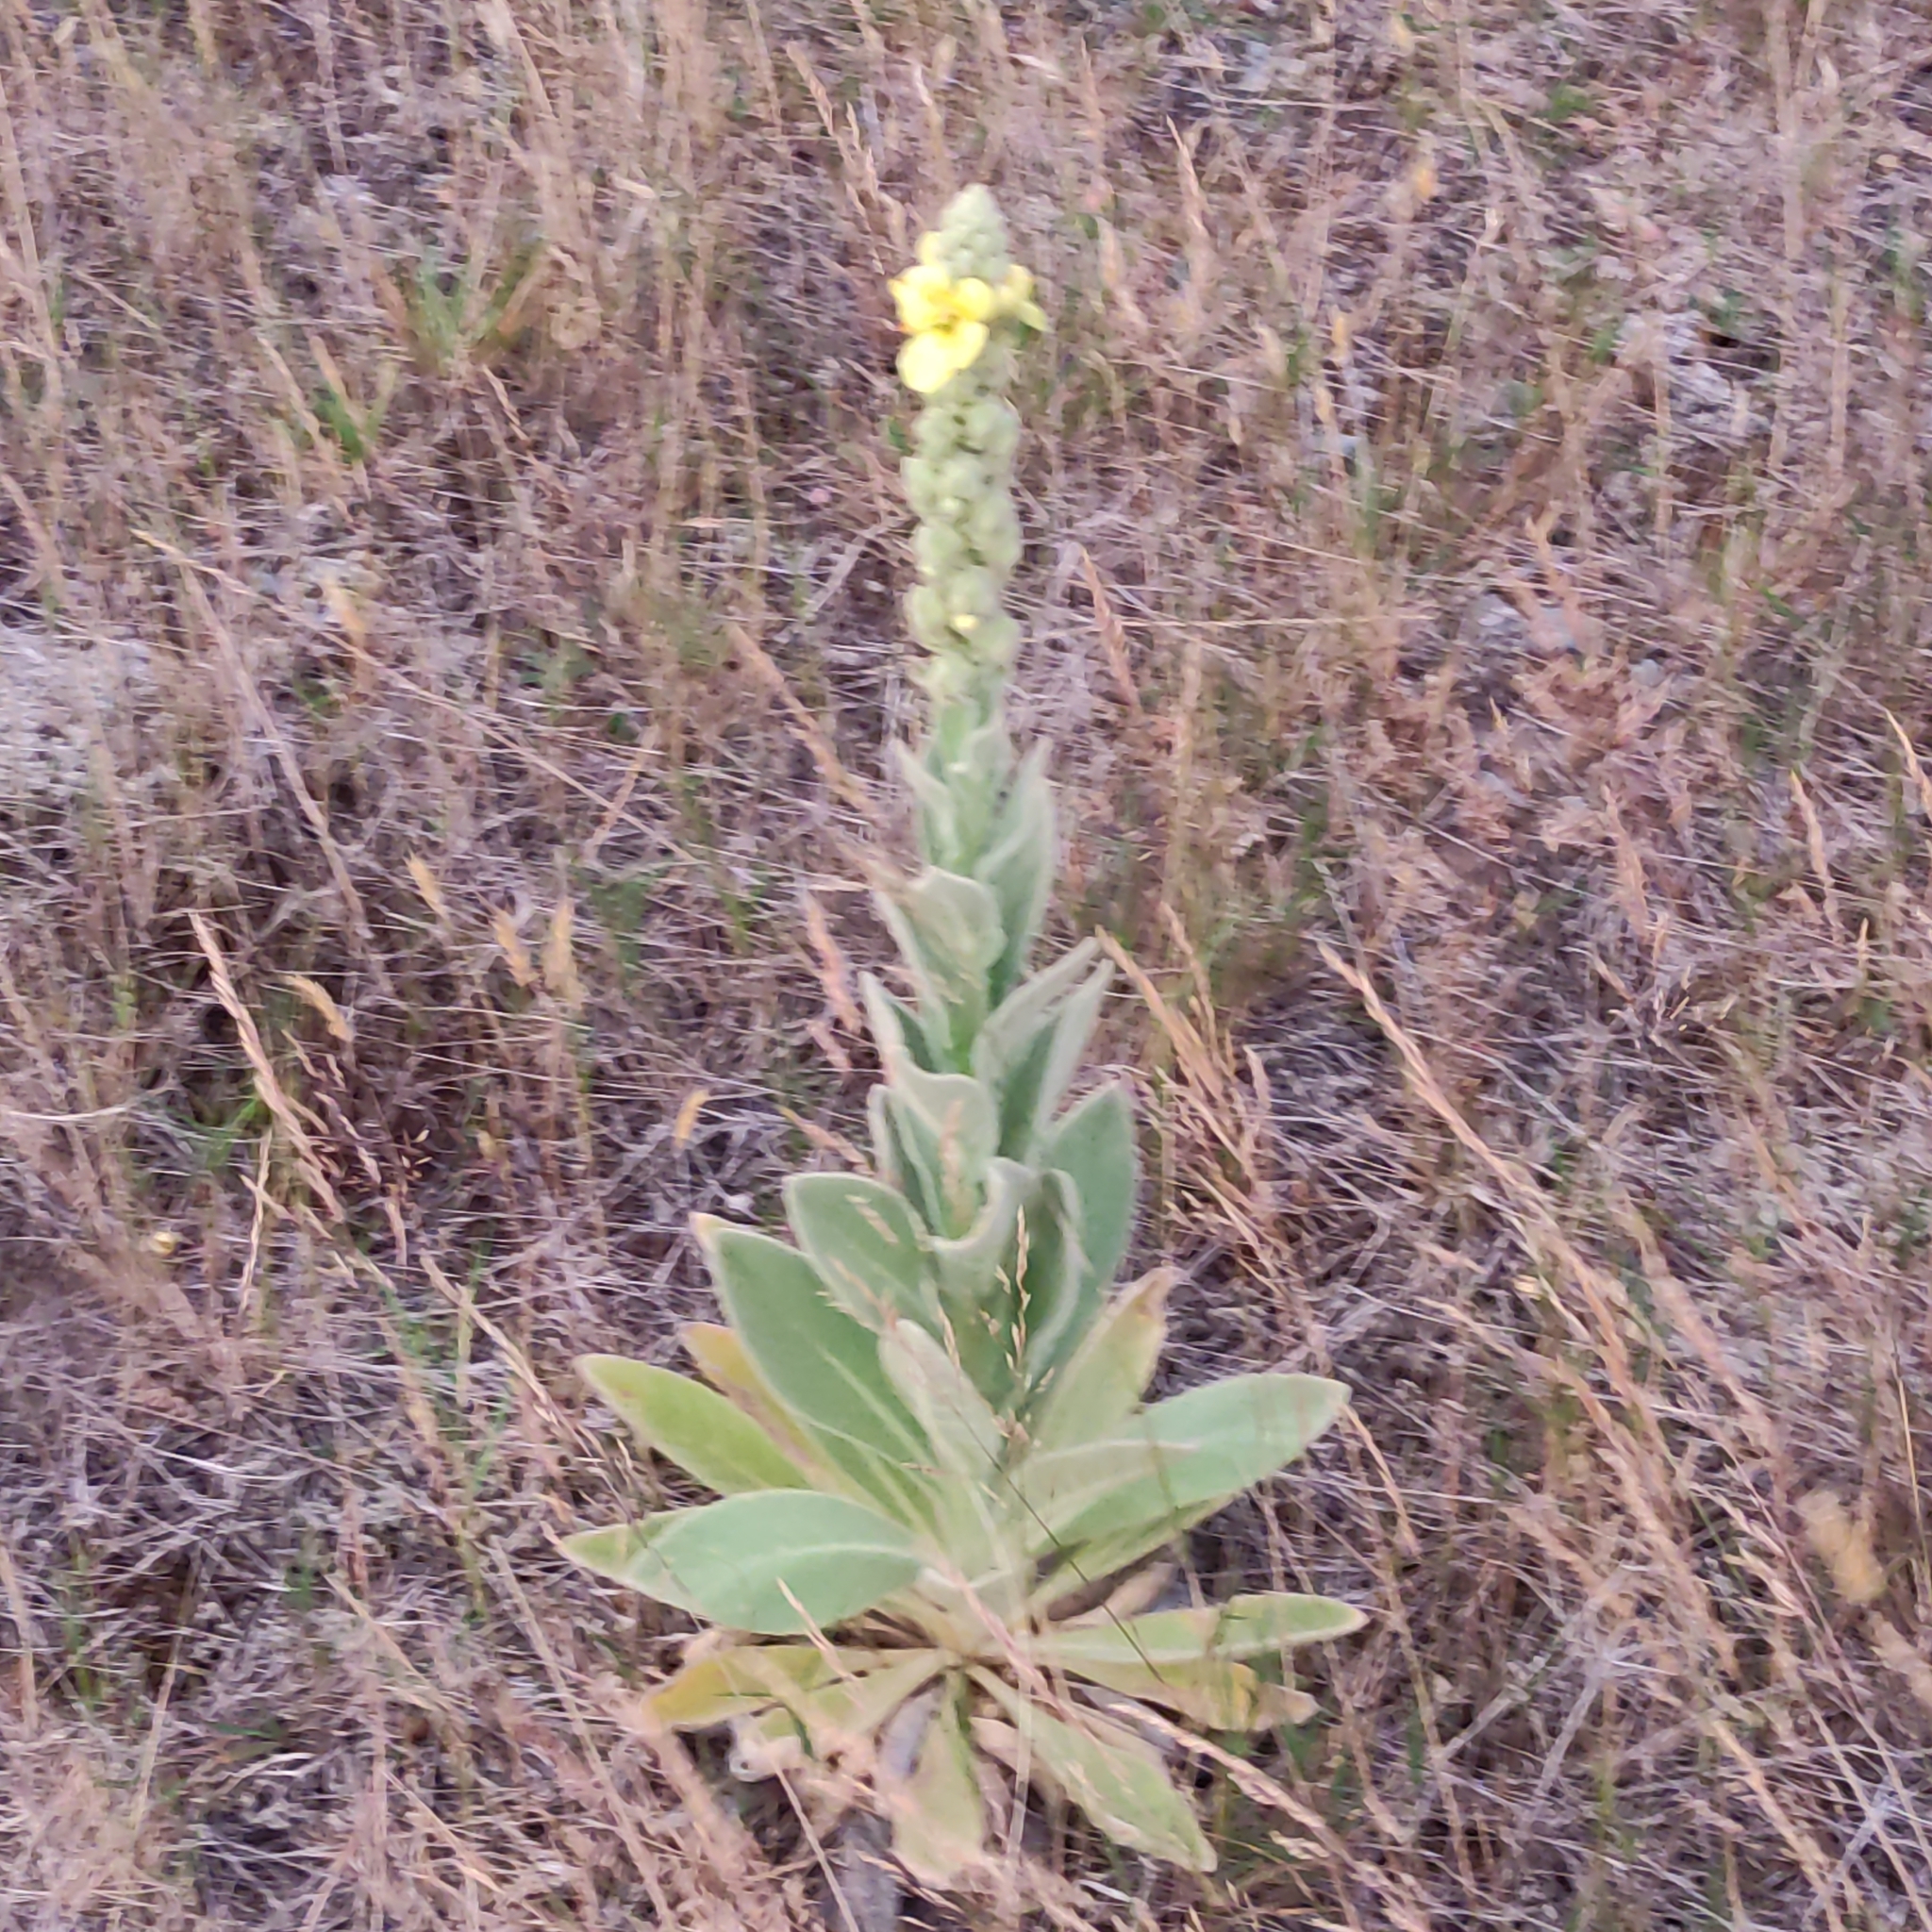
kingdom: Plantae
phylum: Tracheophyta
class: Magnoliopsida
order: Lamiales
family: Scrophulariaceae
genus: Verbascum
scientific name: Verbascum thapsus
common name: Common mullein
